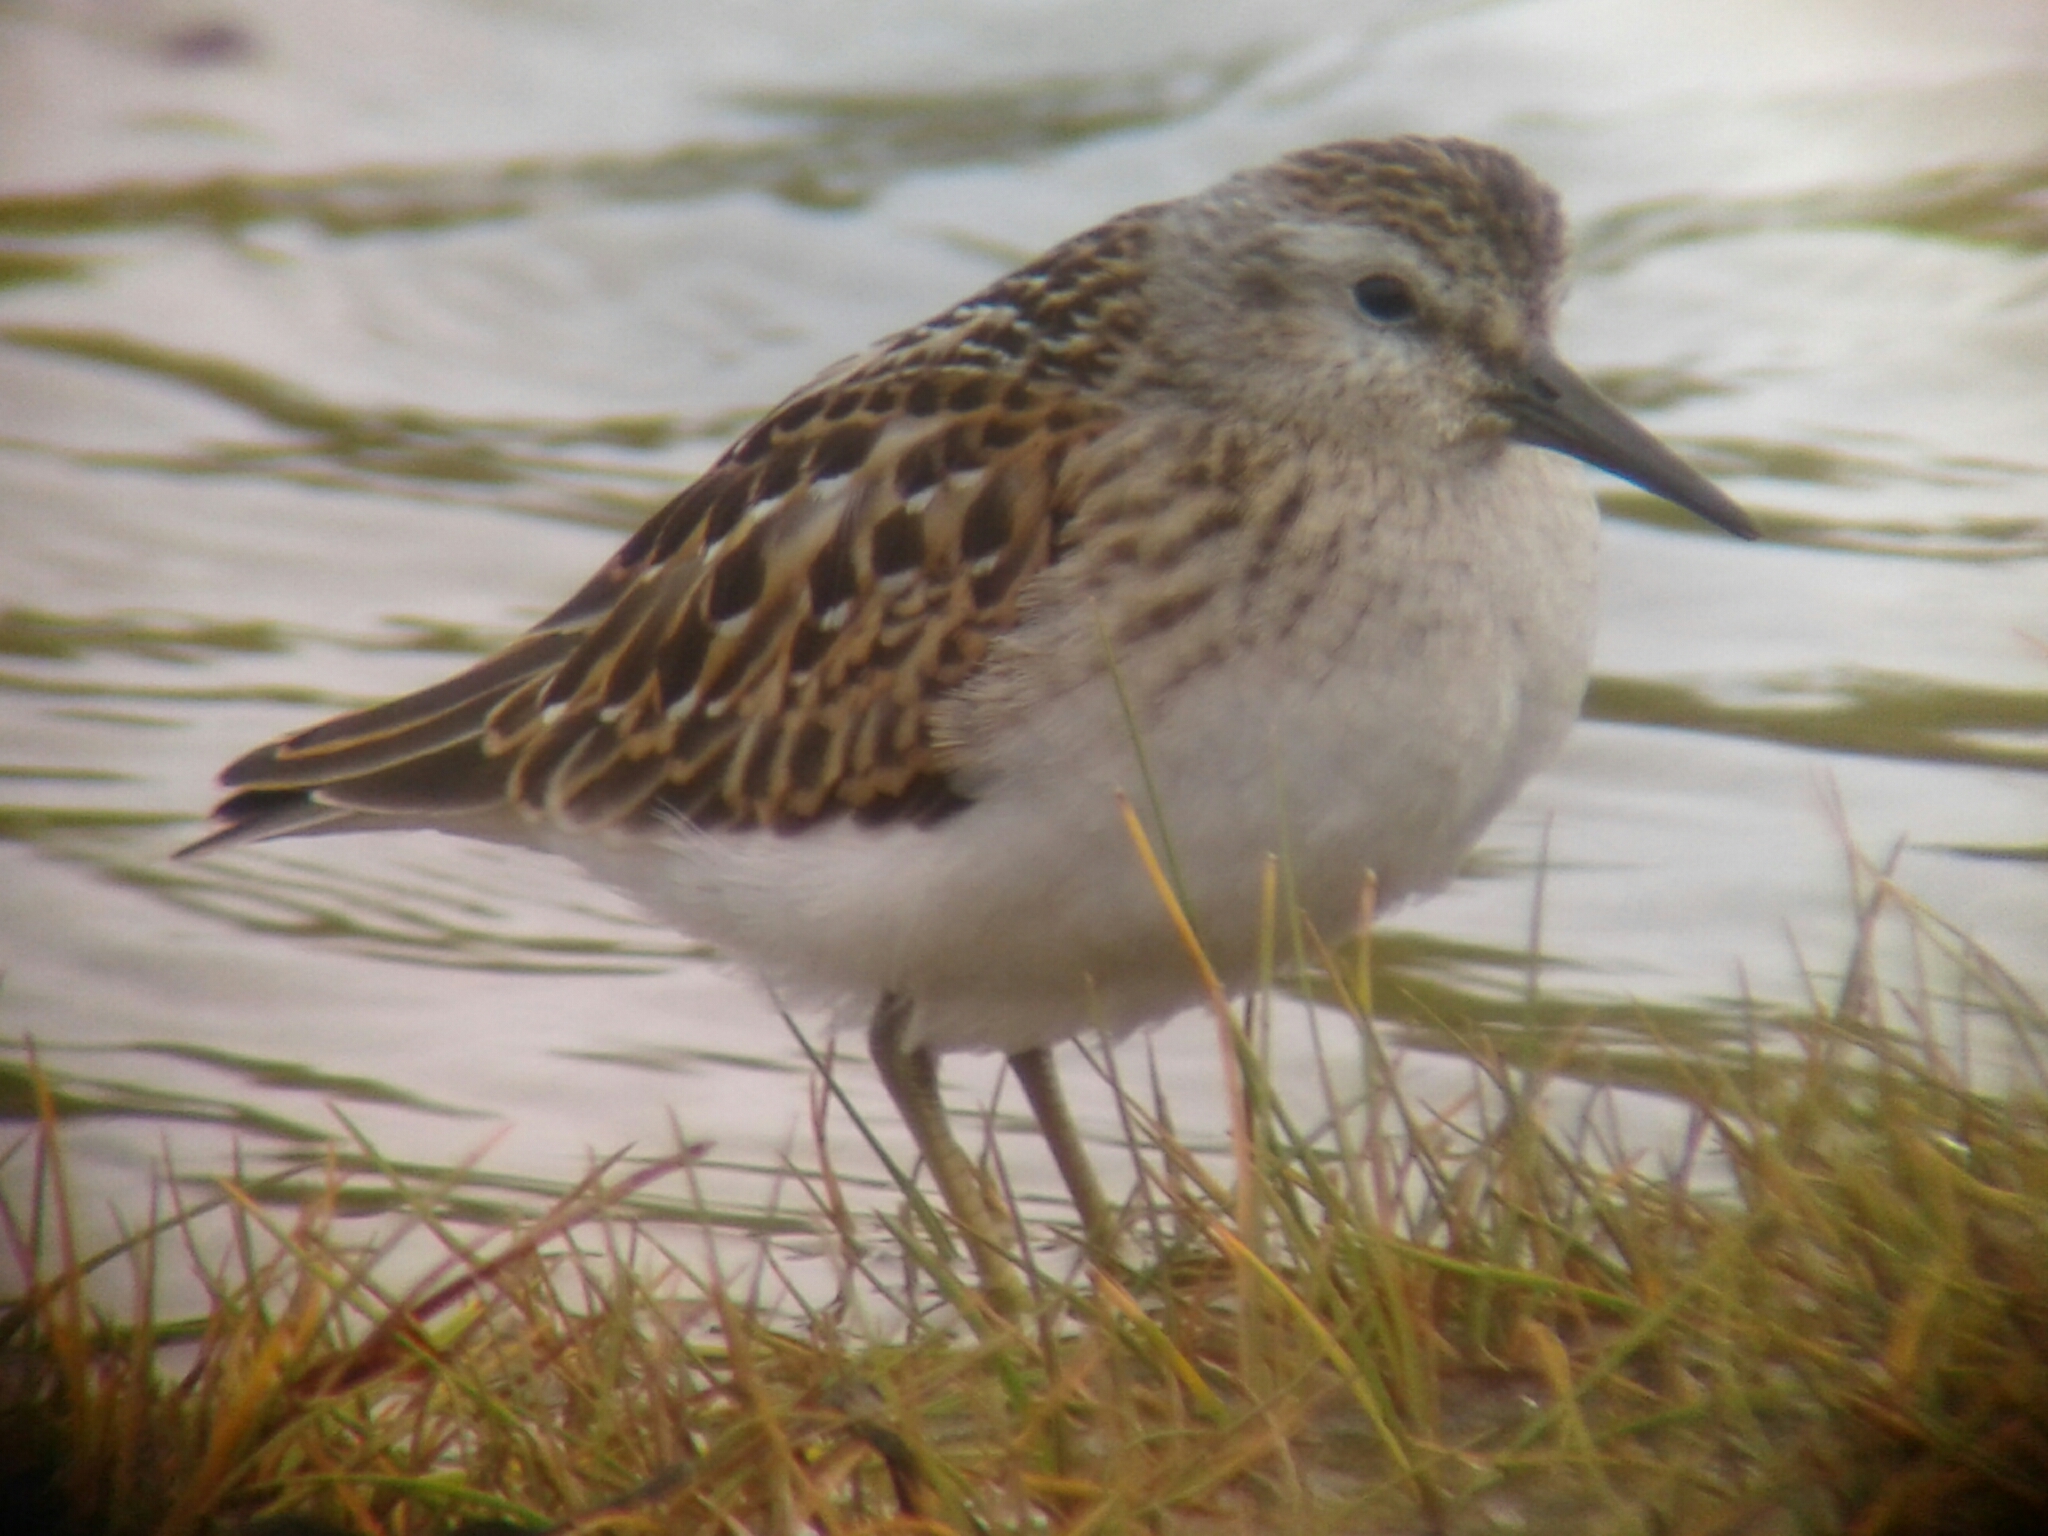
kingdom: Animalia
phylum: Chordata
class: Aves
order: Charadriiformes
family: Scolopacidae
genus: Calidris
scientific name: Calidris minutilla
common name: Least sandpiper
